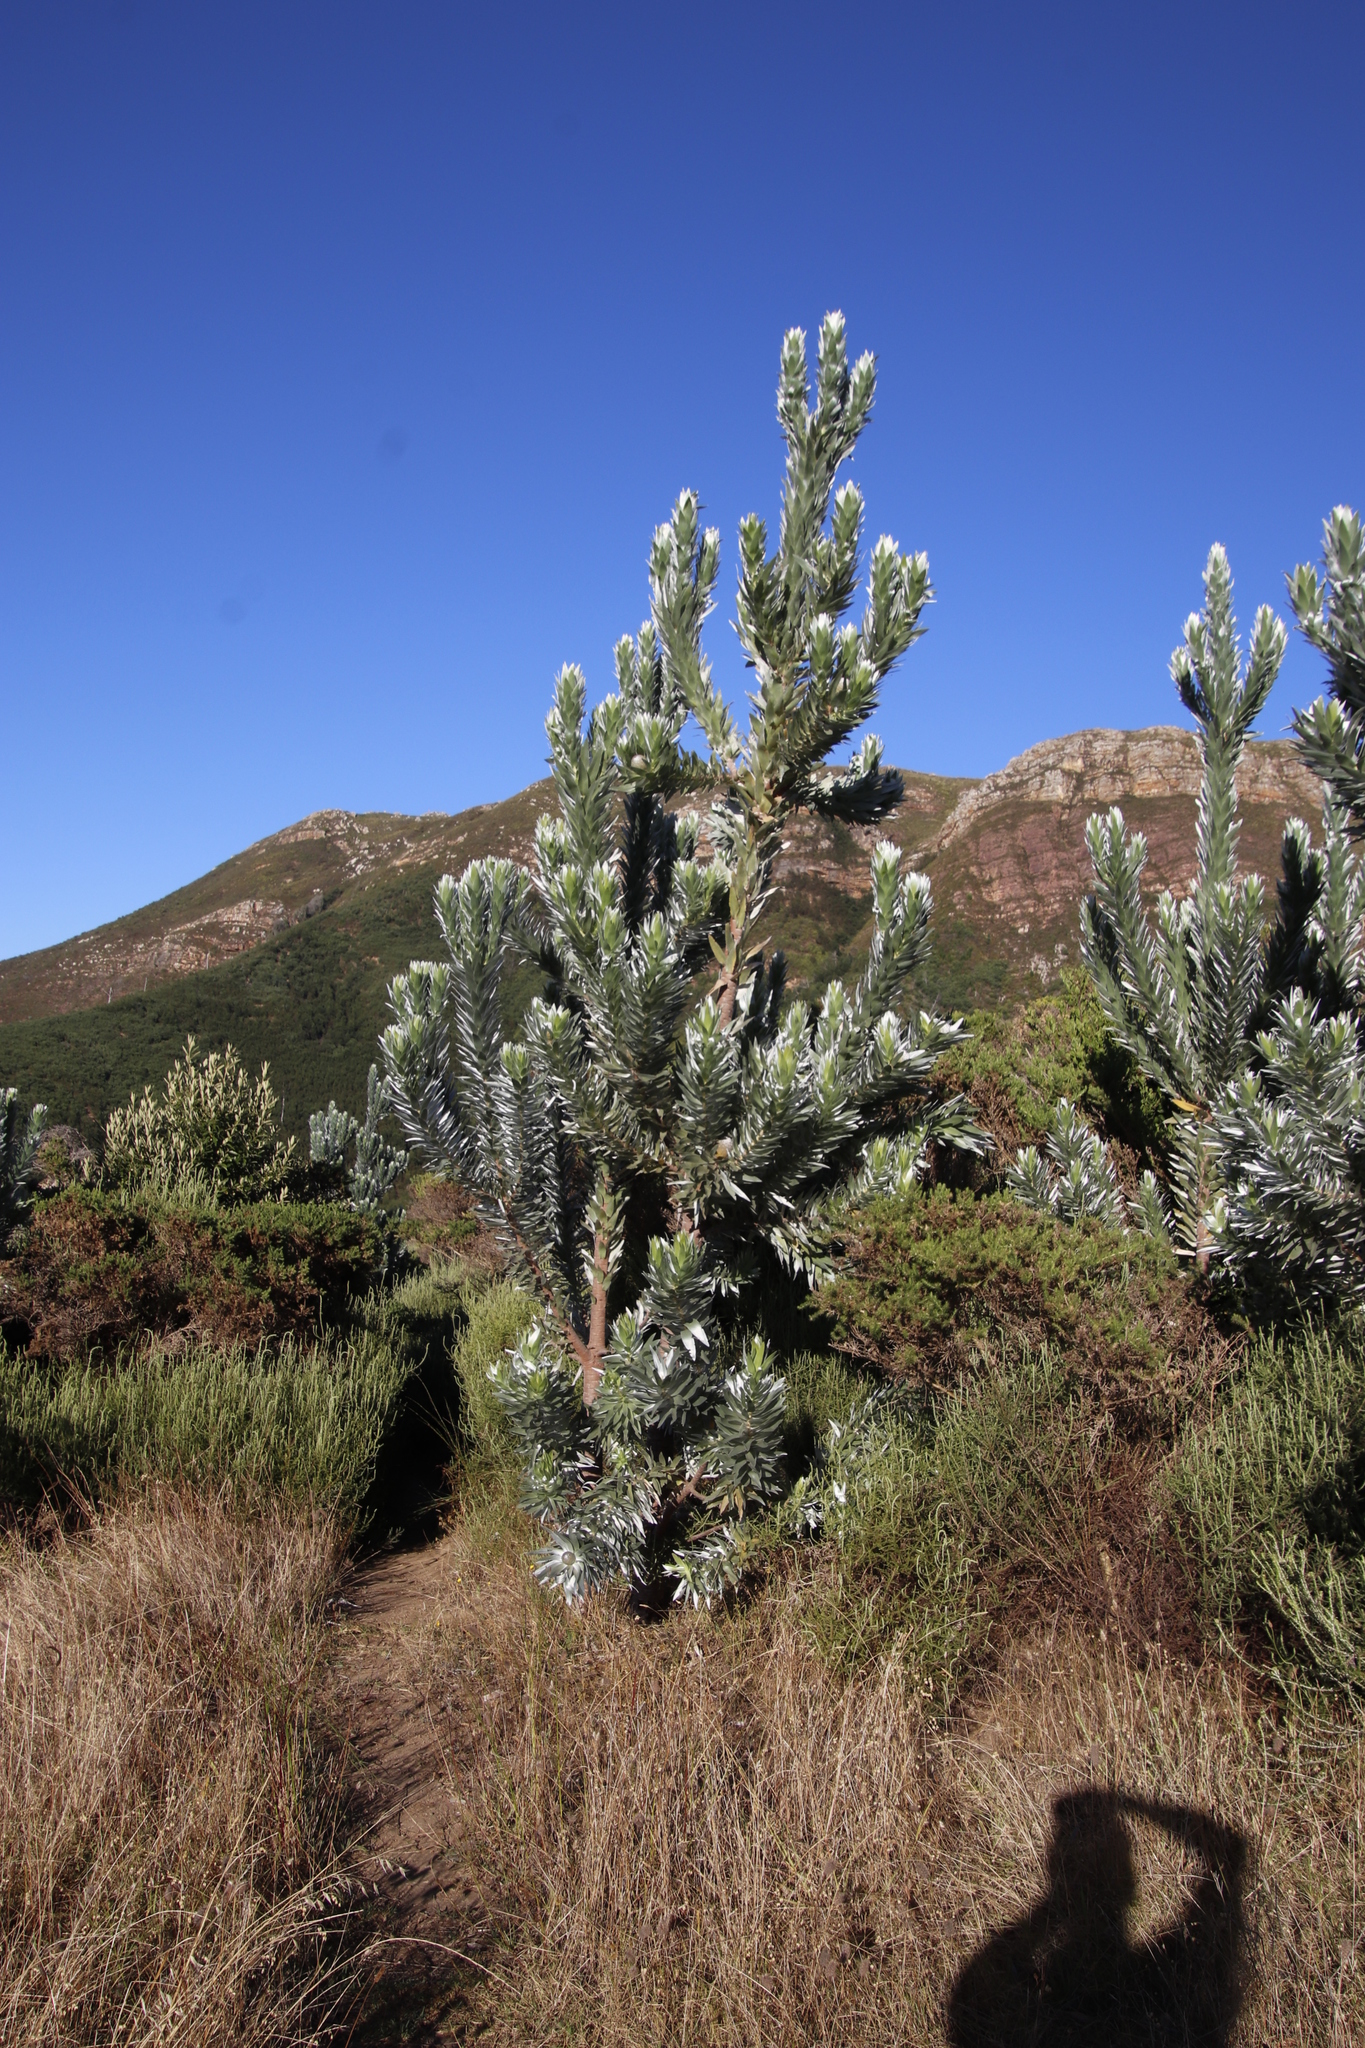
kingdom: Plantae
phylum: Tracheophyta
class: Magnoliopsida
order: Proteales
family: Proteaceae
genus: Leucadendron
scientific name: Leucadendron argenteum
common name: Cape silver tree
